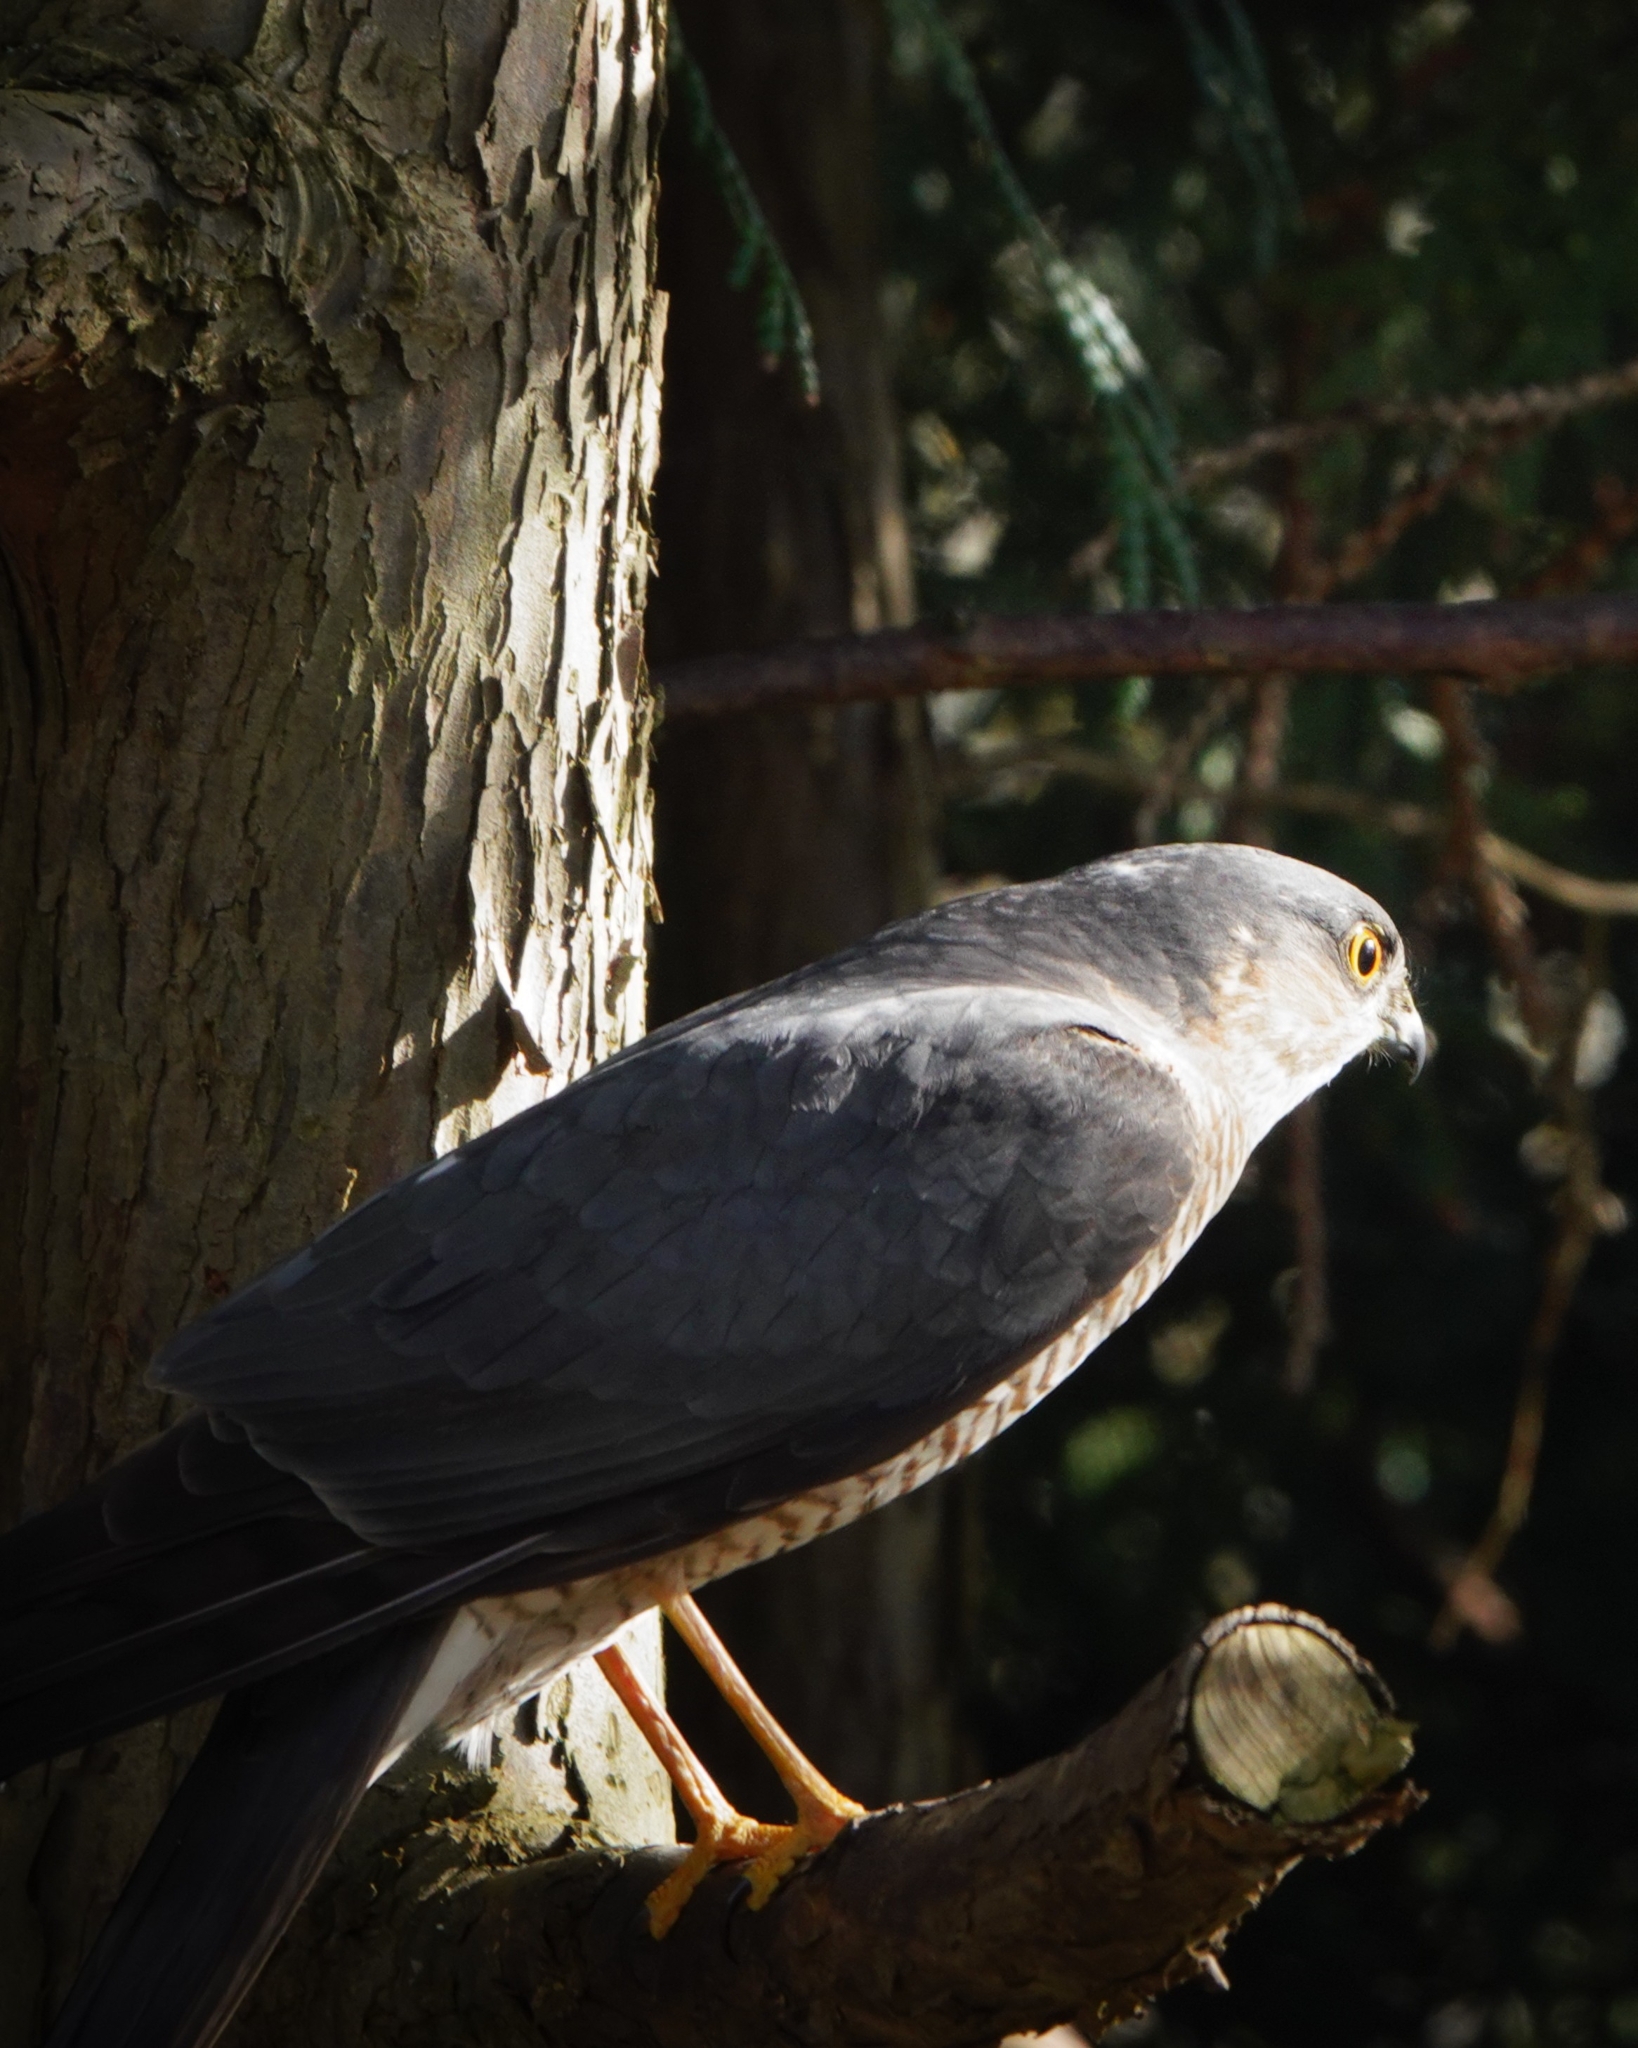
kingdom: Animalia
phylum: Chordata
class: Aves
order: Accipitriformes
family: Accipitridae
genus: Accipiter
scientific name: Accipiter nisus
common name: Eurasian sparrowhawk
